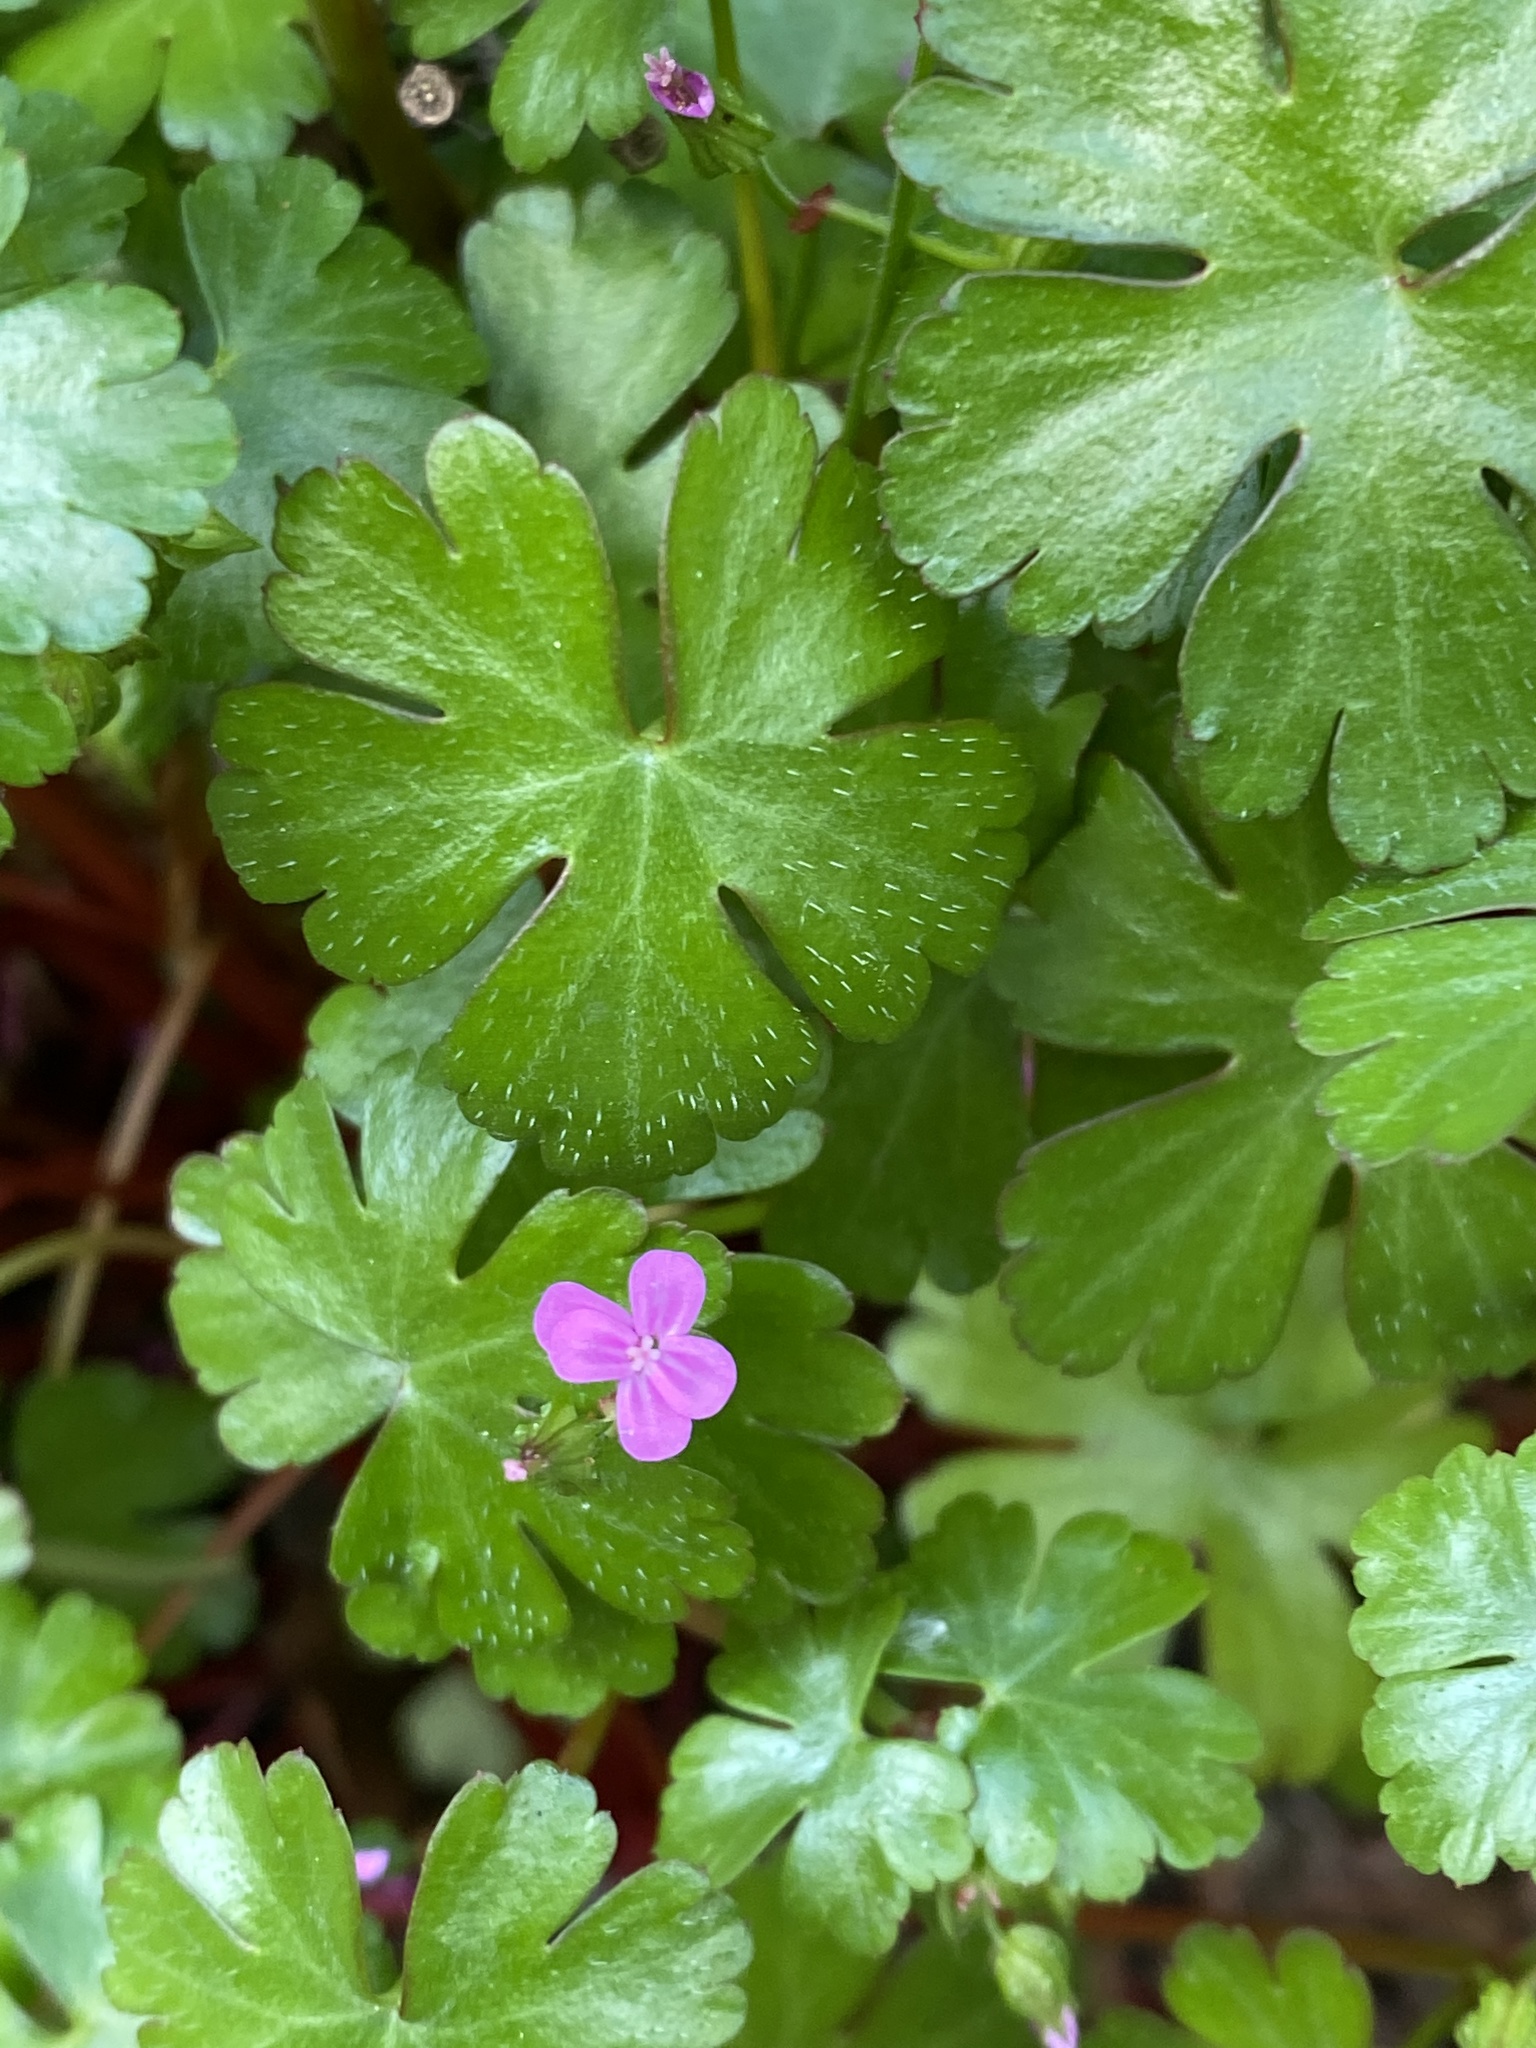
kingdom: Plantae
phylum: Tracheophyta
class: Magnoliopsida
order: Geraniales
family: Geraniaceae
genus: Geranium
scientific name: Geranium lucidum
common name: Shining crane's-bill
